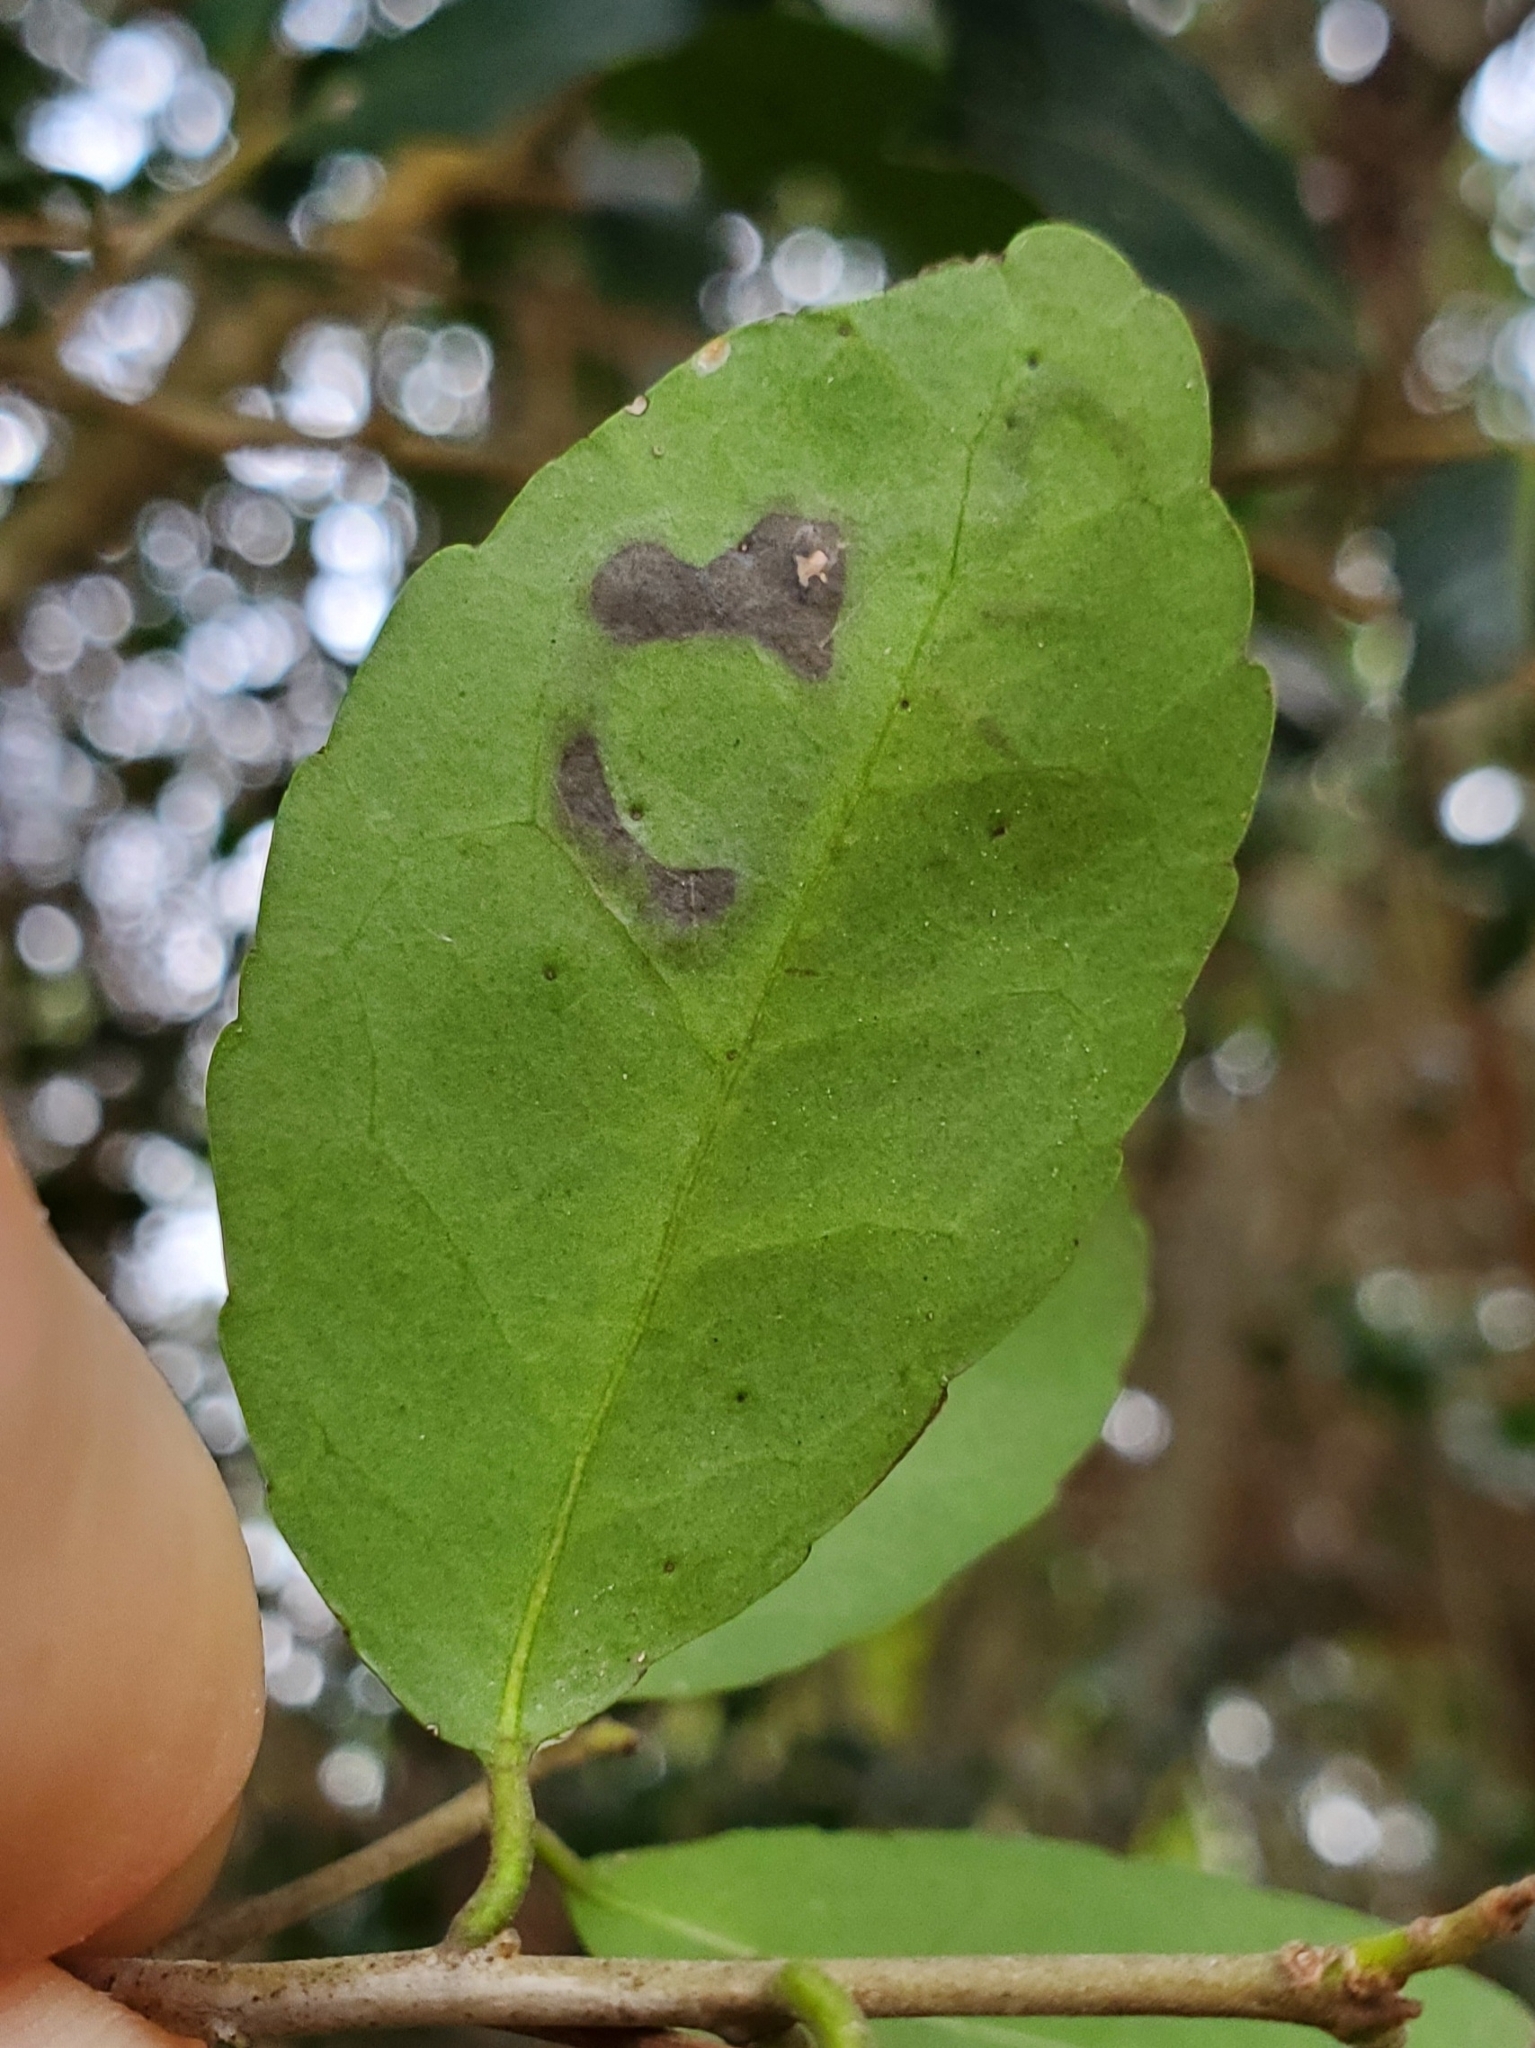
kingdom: Animalia
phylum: Arthropoda
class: Insecta
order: Diptera
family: Agromyzidae
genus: Phytomyza
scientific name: Phytomyza vomitoriae
